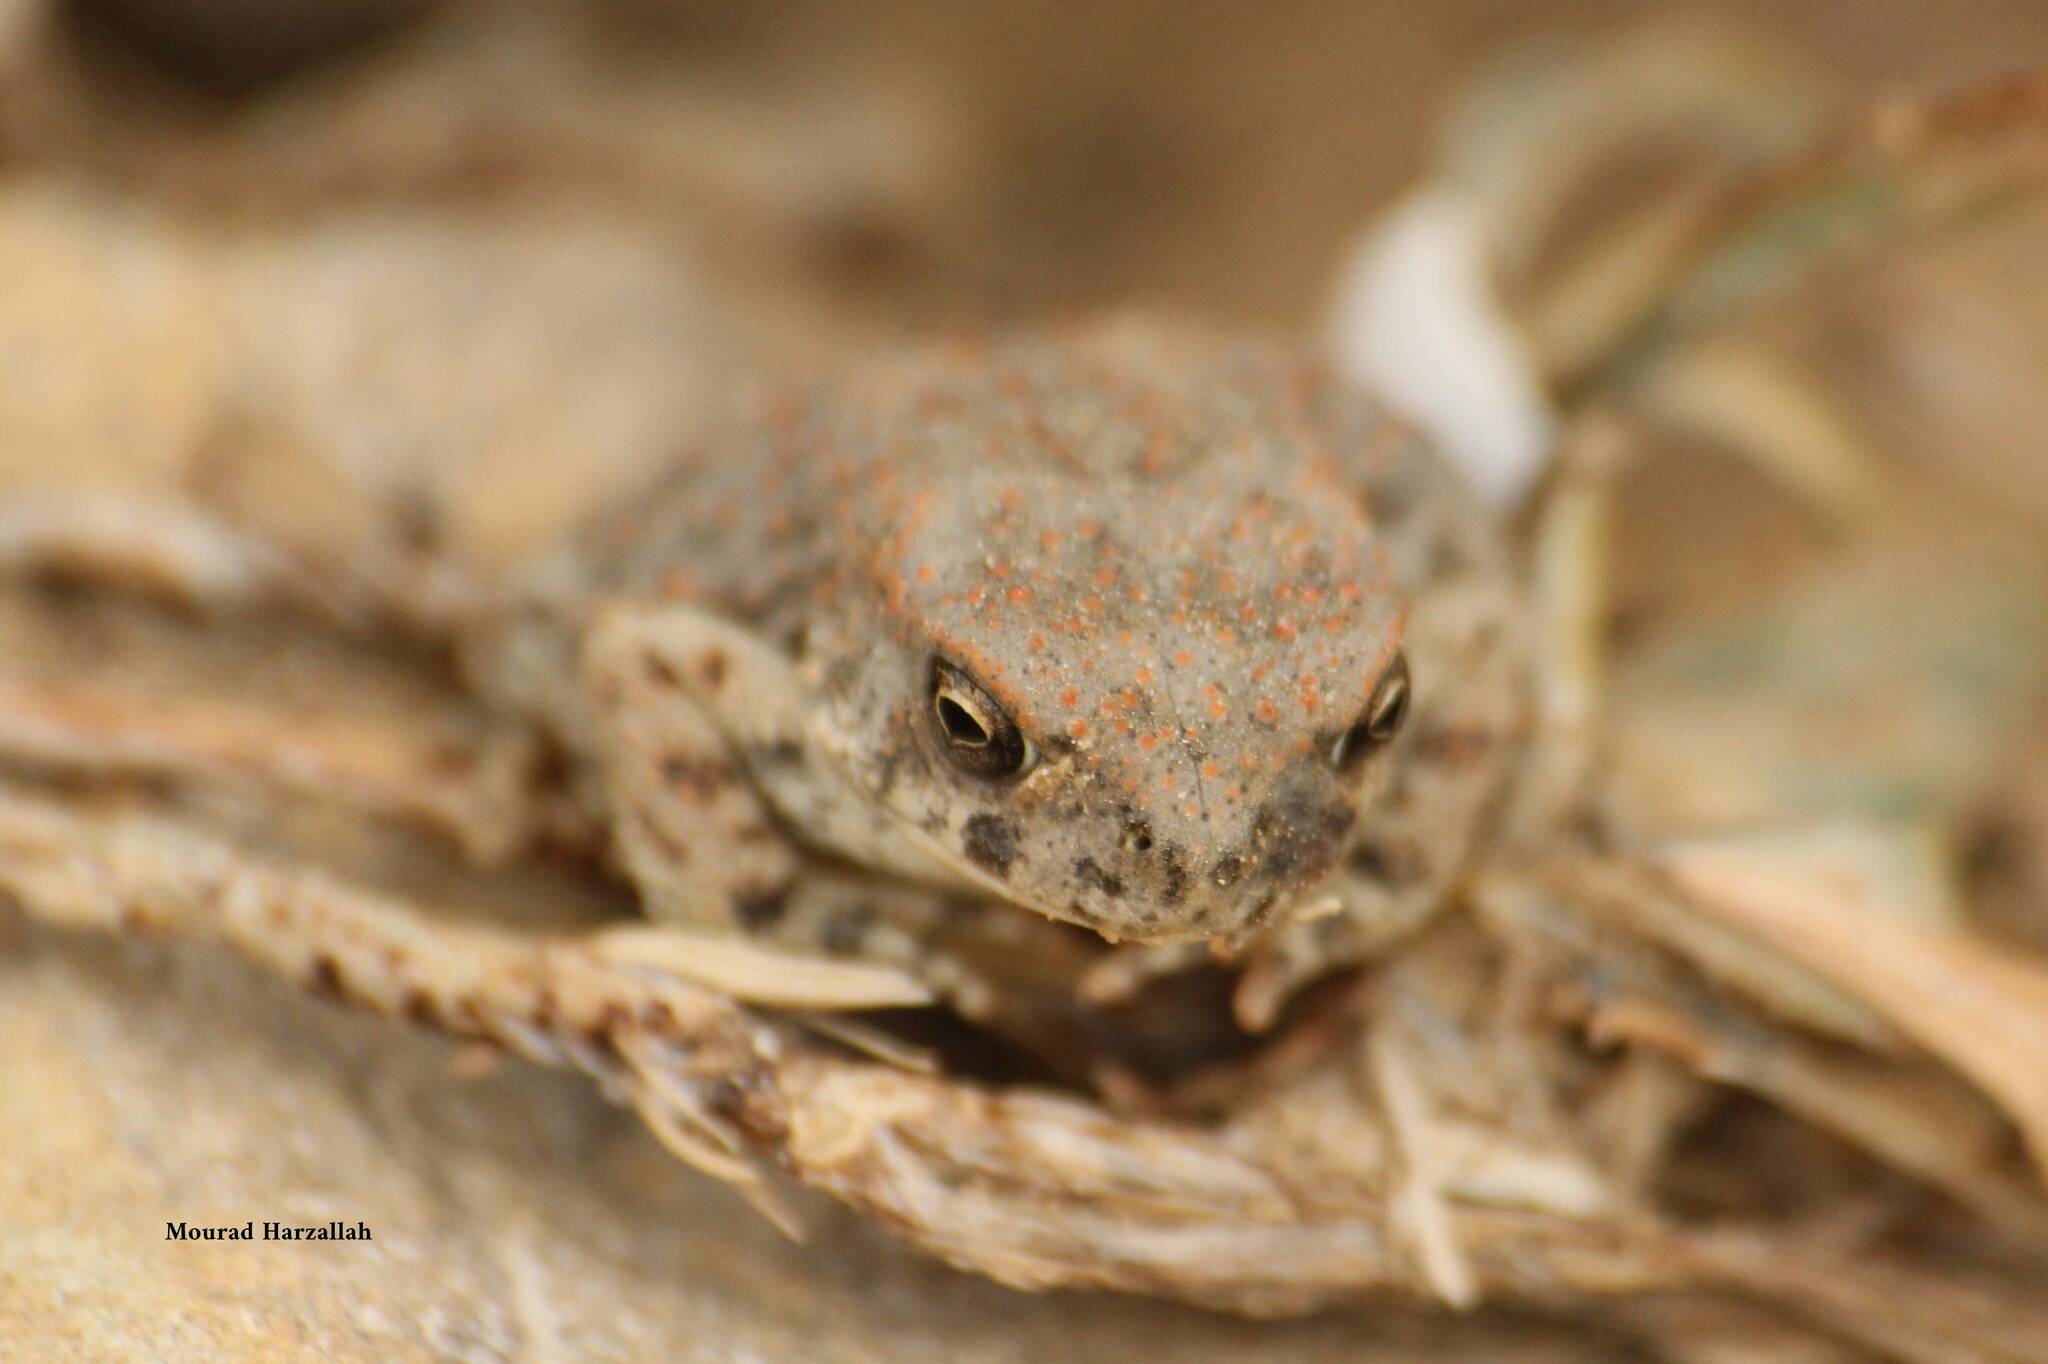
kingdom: Animalia
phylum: Chordata
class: Amphibia
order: Anura
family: Bufonidae
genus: Sclerophrys
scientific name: Sclerophrys mauritanica
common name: Berber toad
